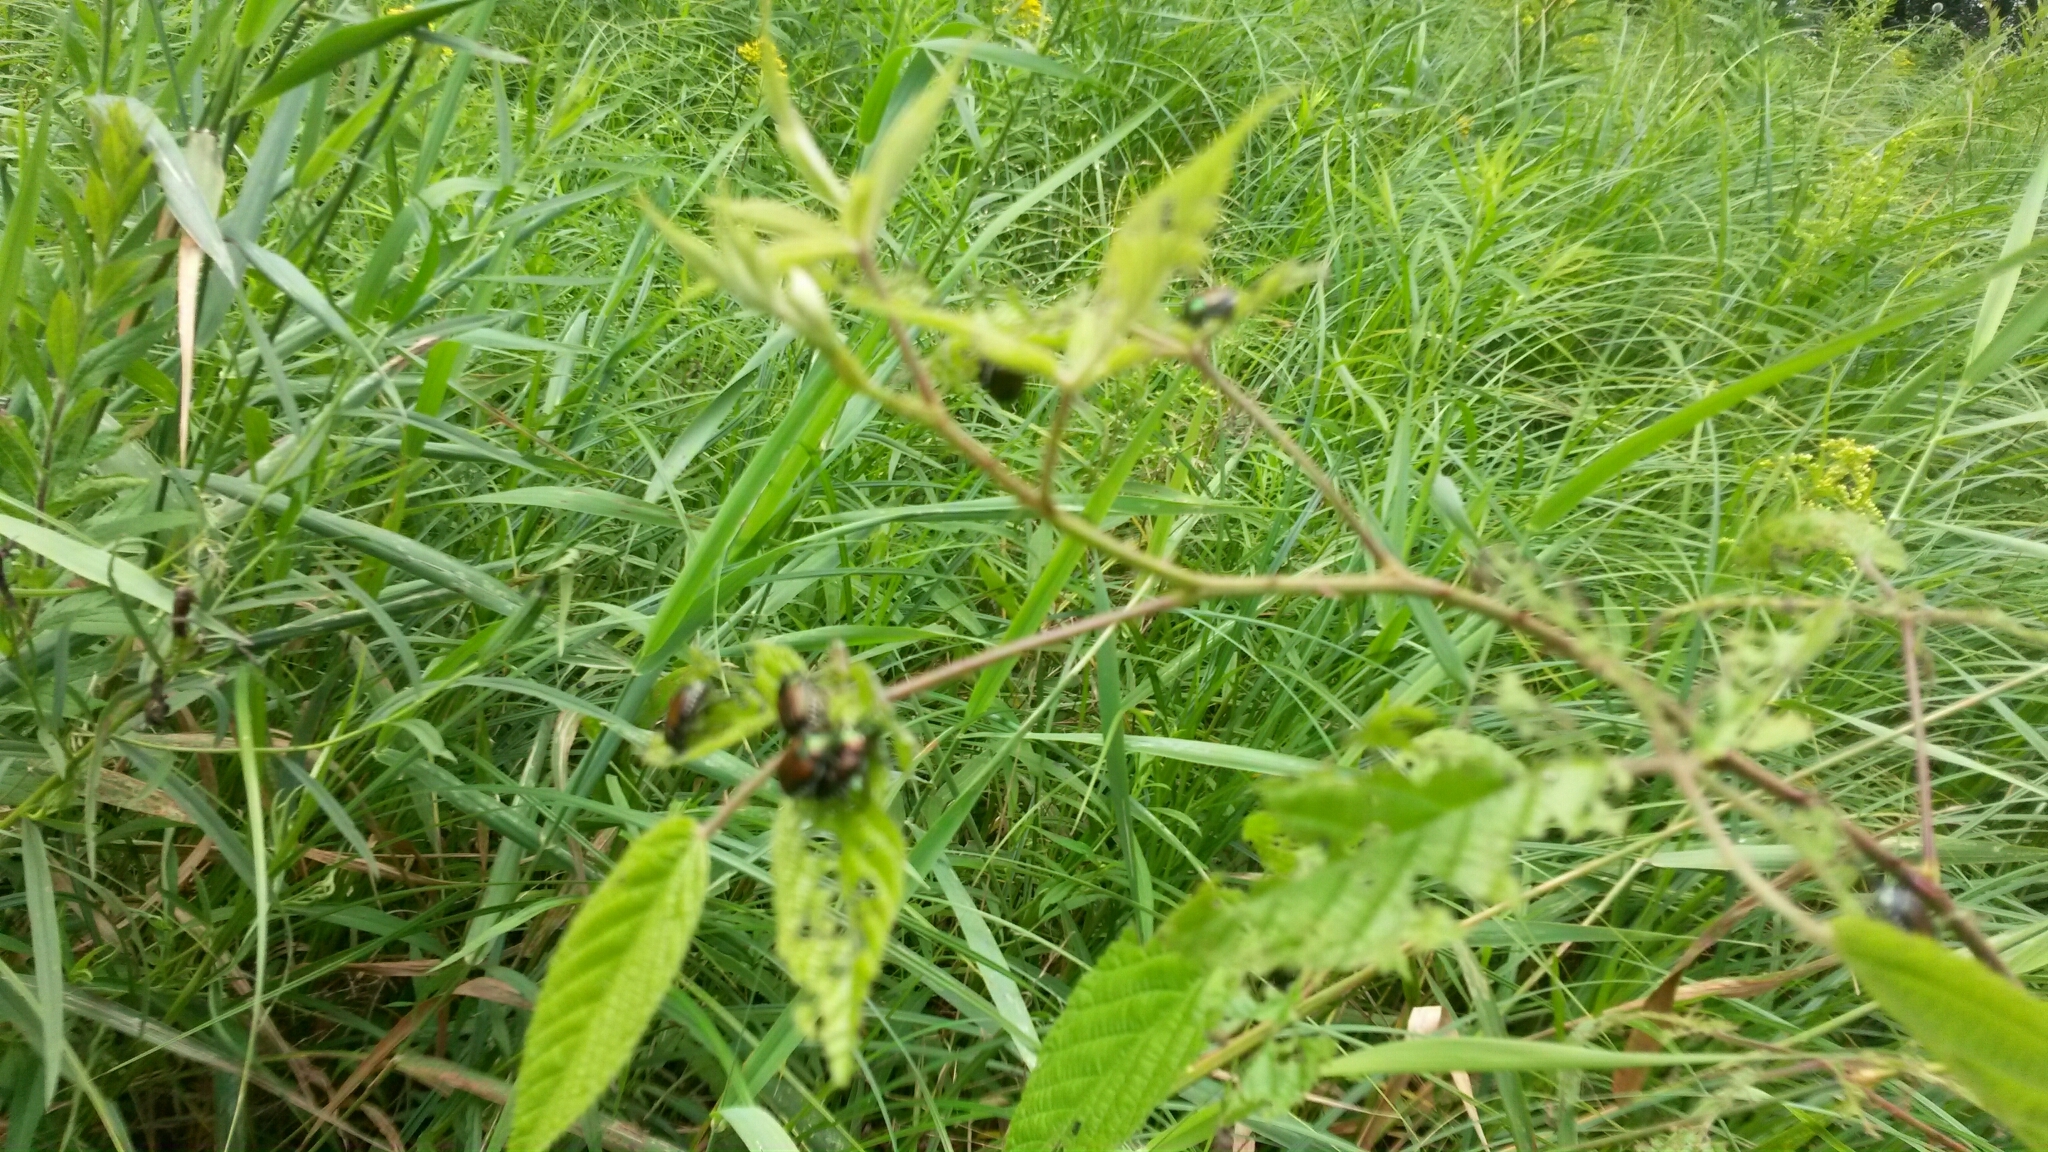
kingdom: Animalia
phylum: Arthropoda
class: Insecta
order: Coleoptera
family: Scarabaeidae
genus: Popillia
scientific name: Popillia japonica
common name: Japanese beetle
